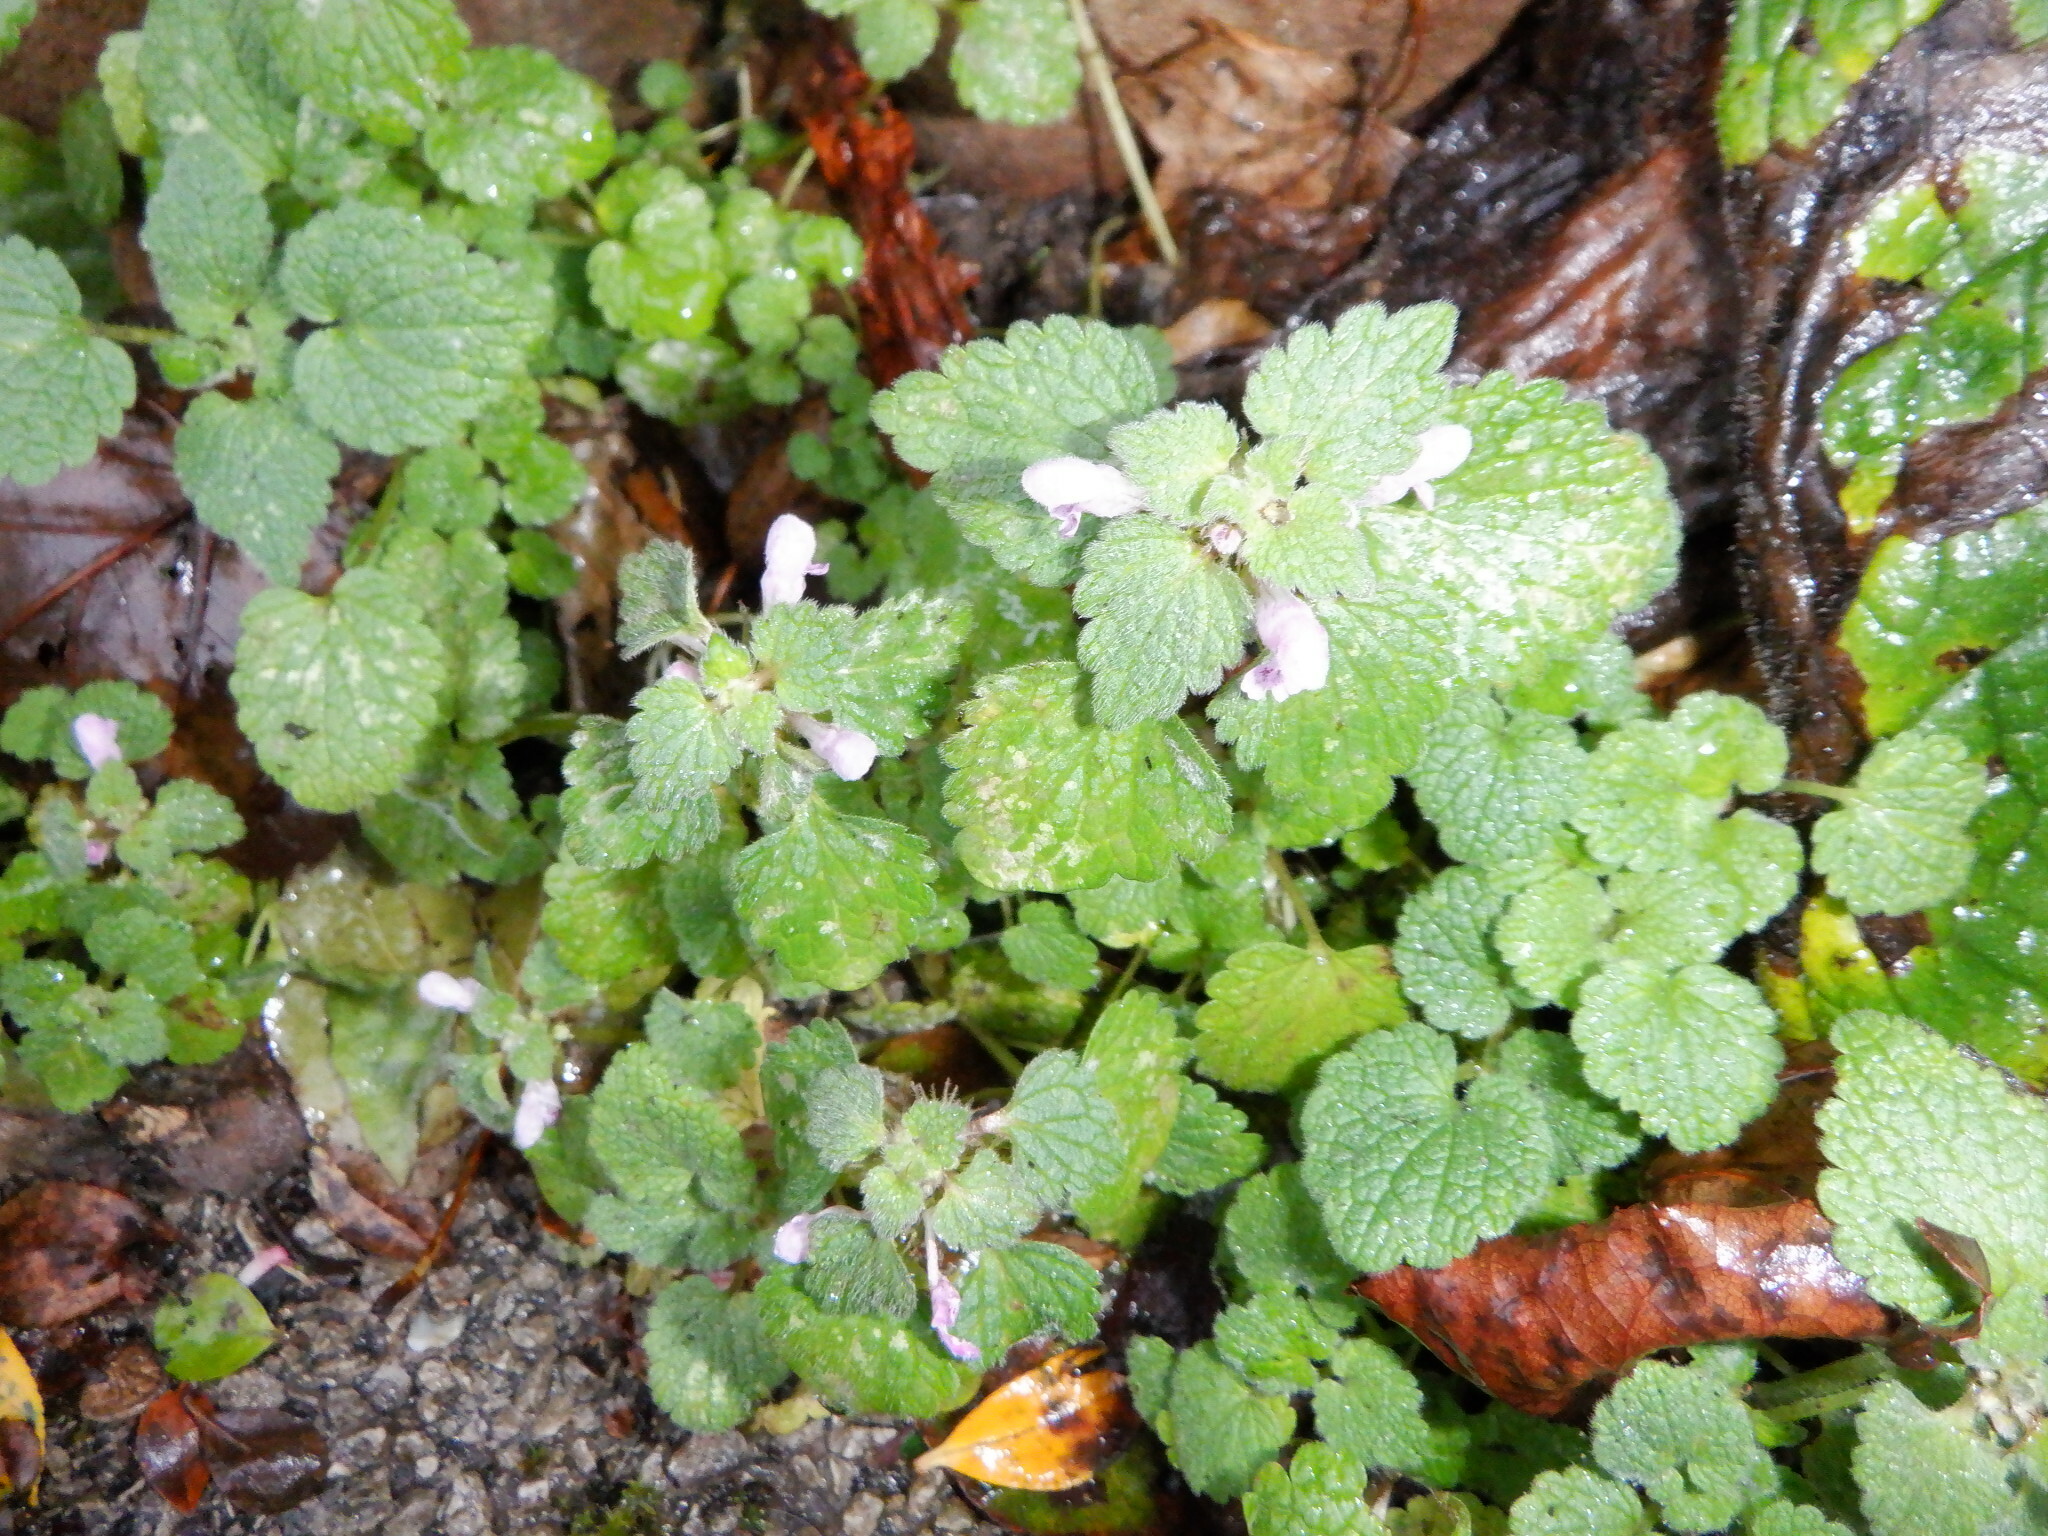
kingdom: Plantae
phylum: Tracheophyta
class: Magnoliopsida
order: Lamiales
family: Lamiaceae
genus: Lamium
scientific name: Lamium purpureum
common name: Red dead-nettle
